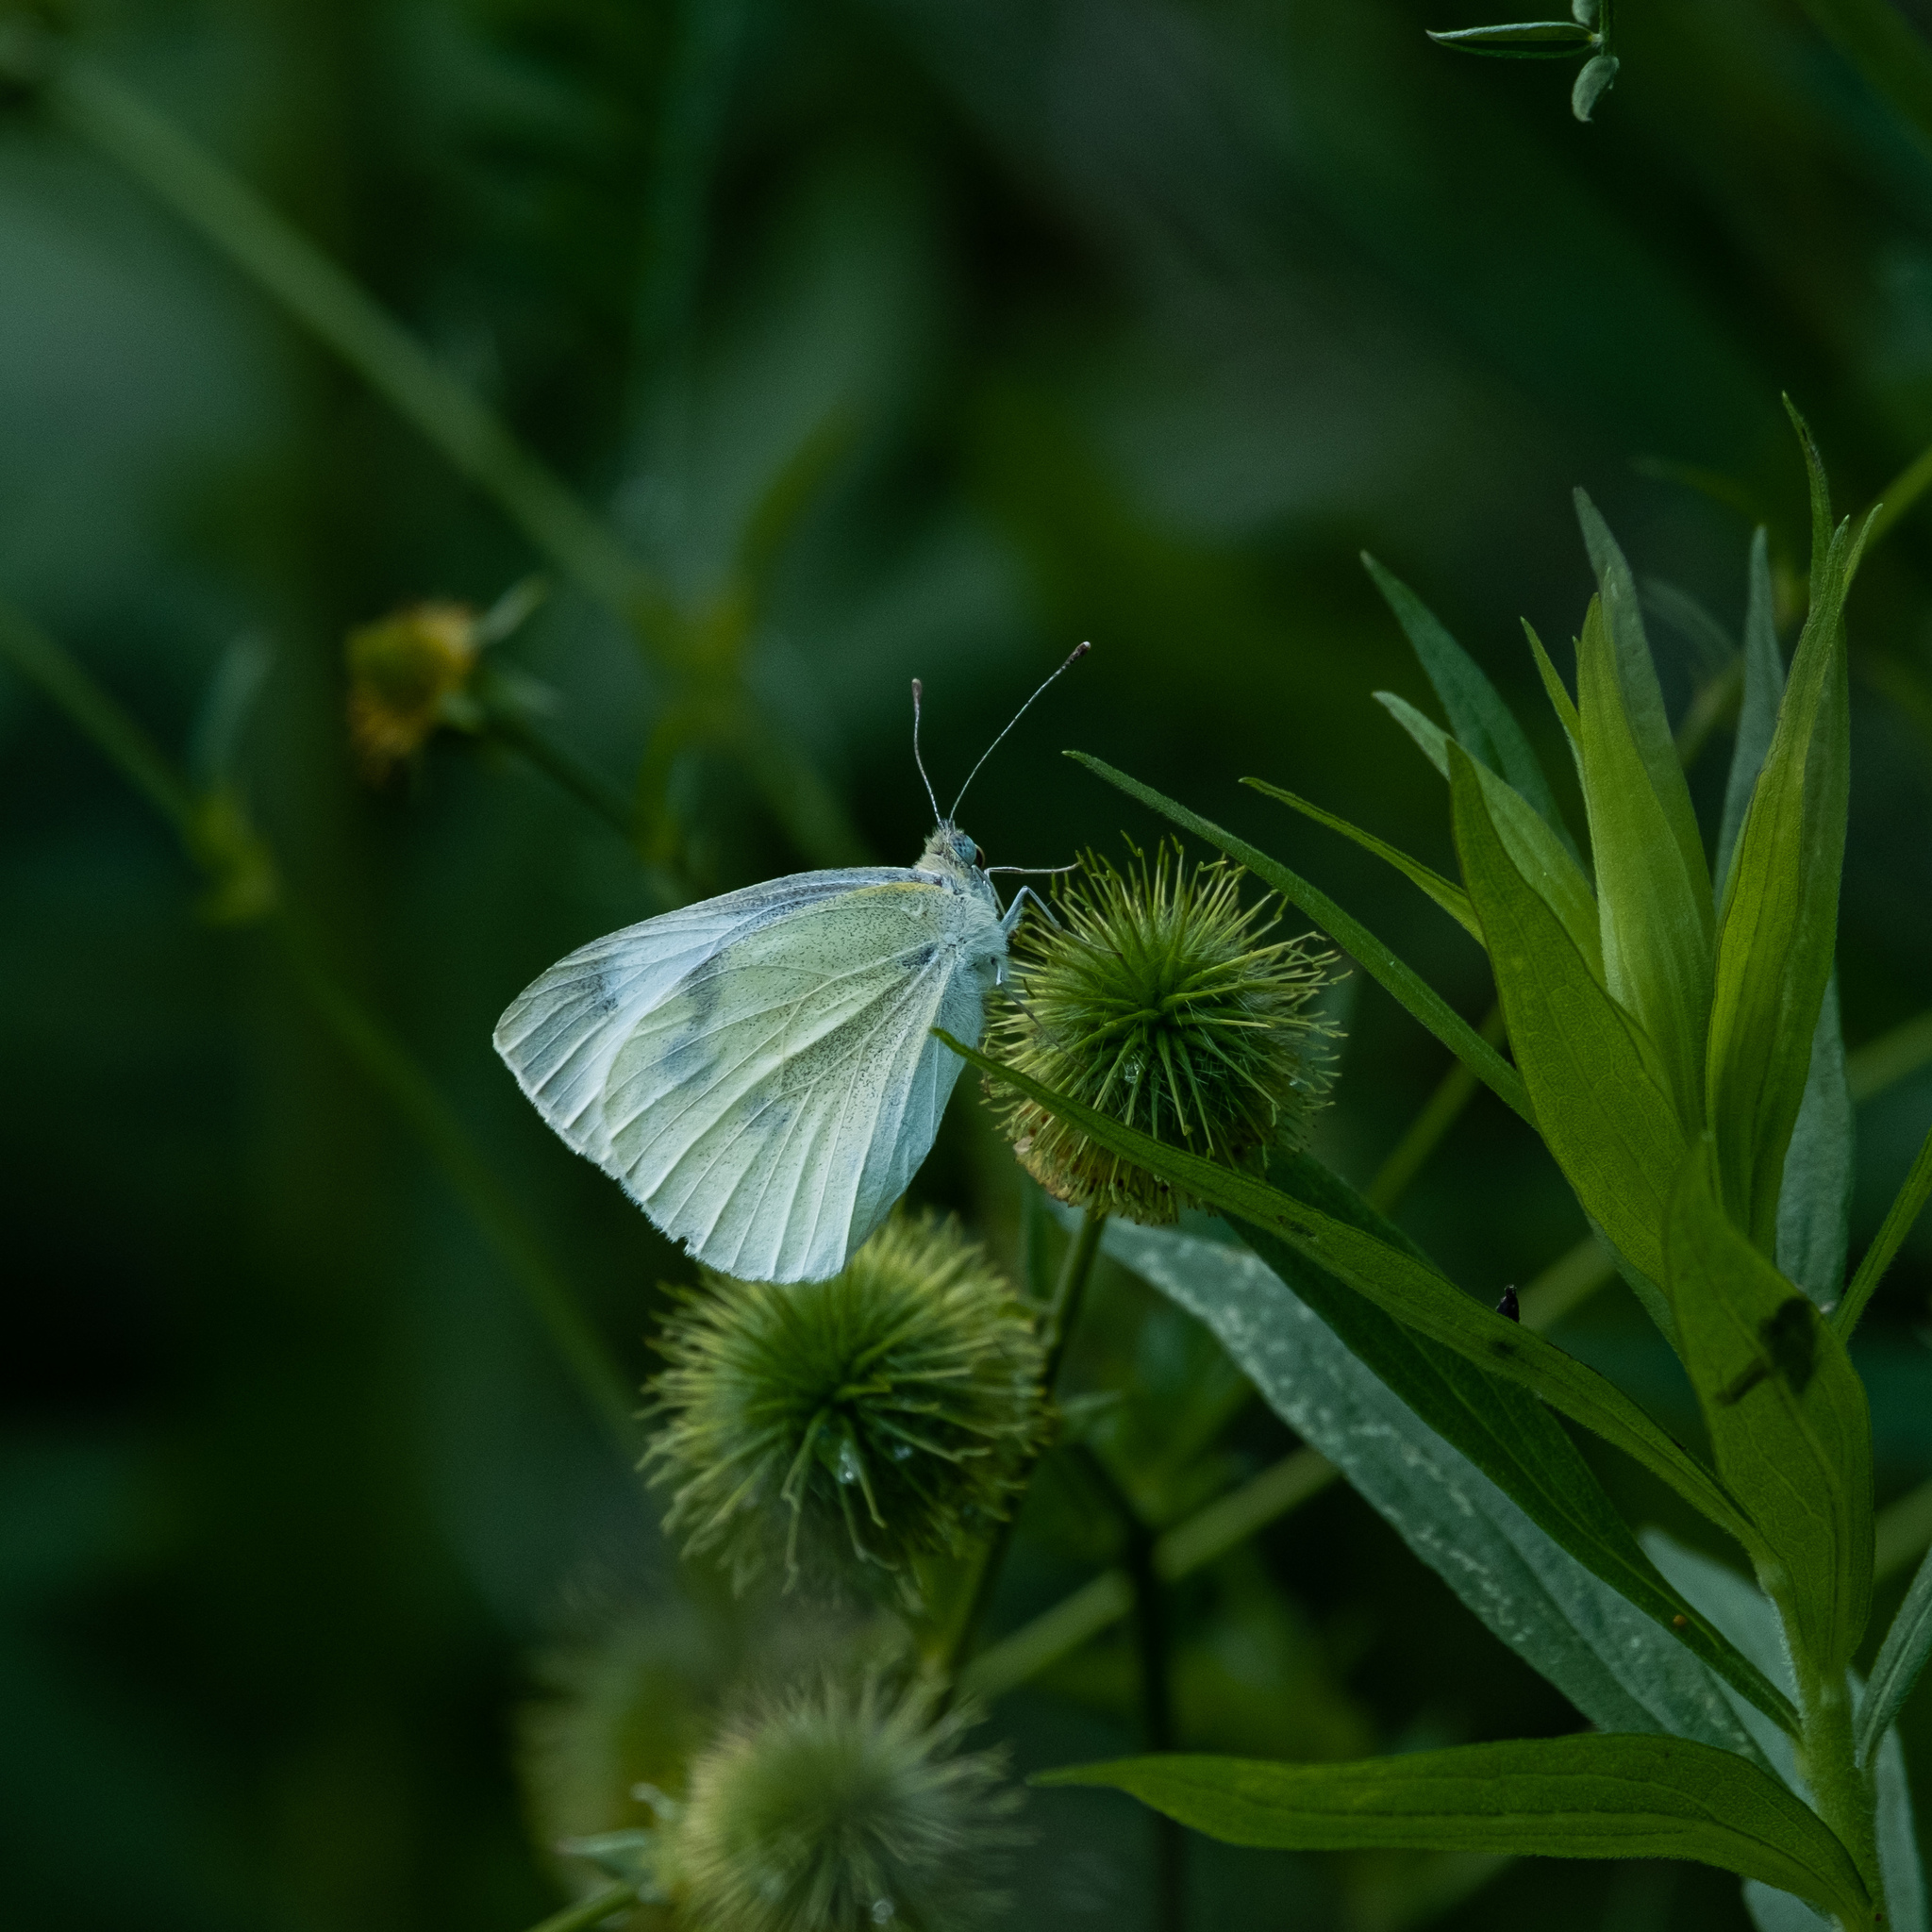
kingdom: Animalia
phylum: Arthropoda
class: Insecta
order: Lepidoptera
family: Pieridae
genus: Pieris
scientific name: Pieris rapae
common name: Small white
